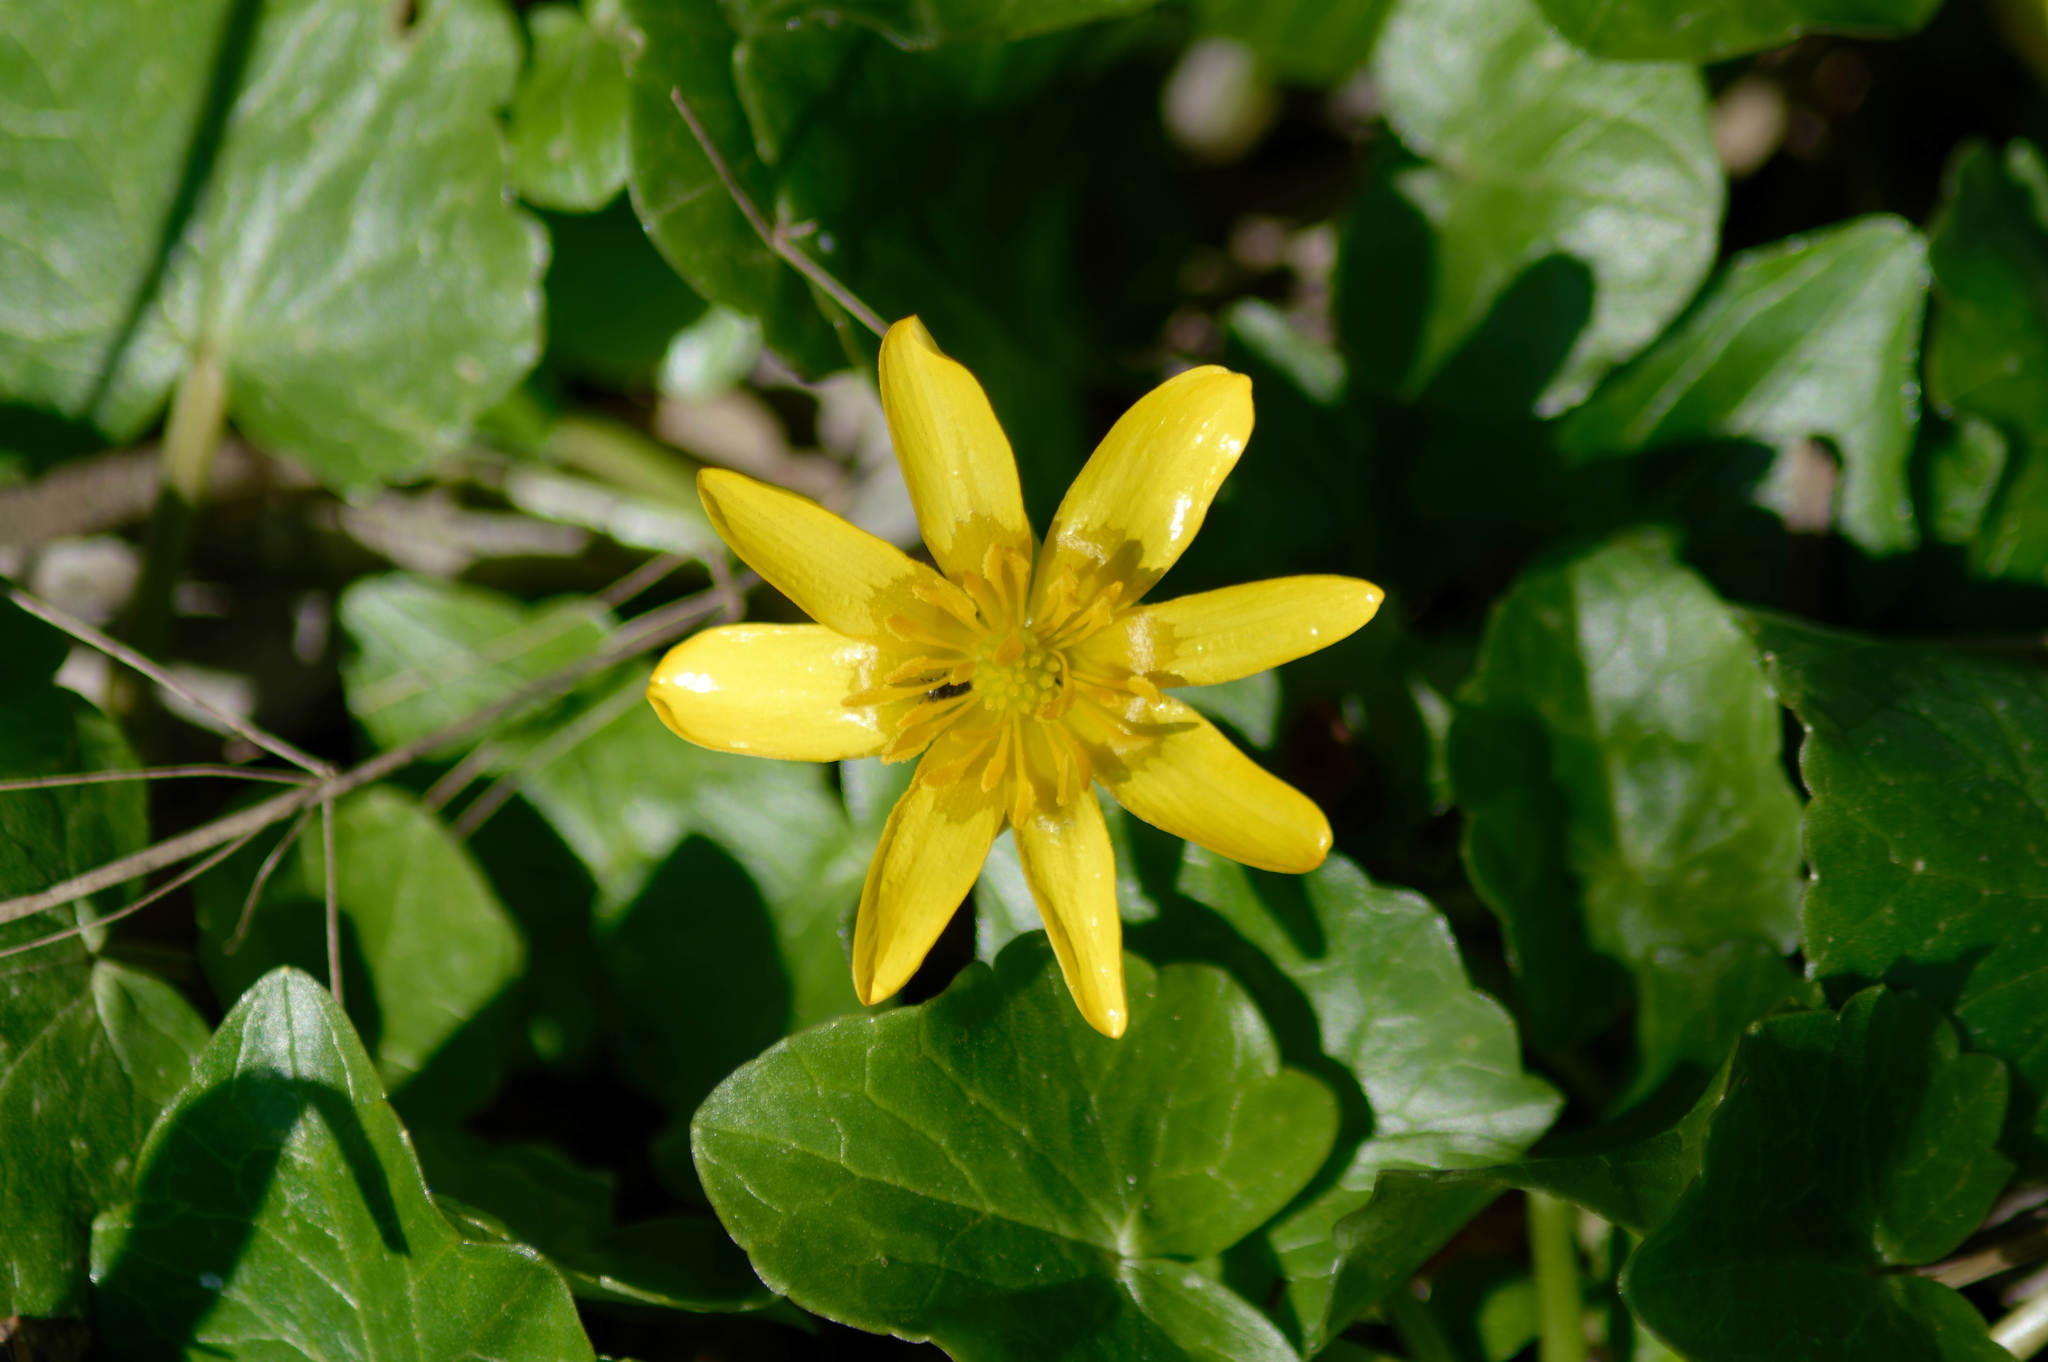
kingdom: Plantae
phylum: Tracheophyta
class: Magnoliopsida
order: Ranunculales
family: Ranunculaceae
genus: Ficaria
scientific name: Ficaria verna
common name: Lesser celandine
